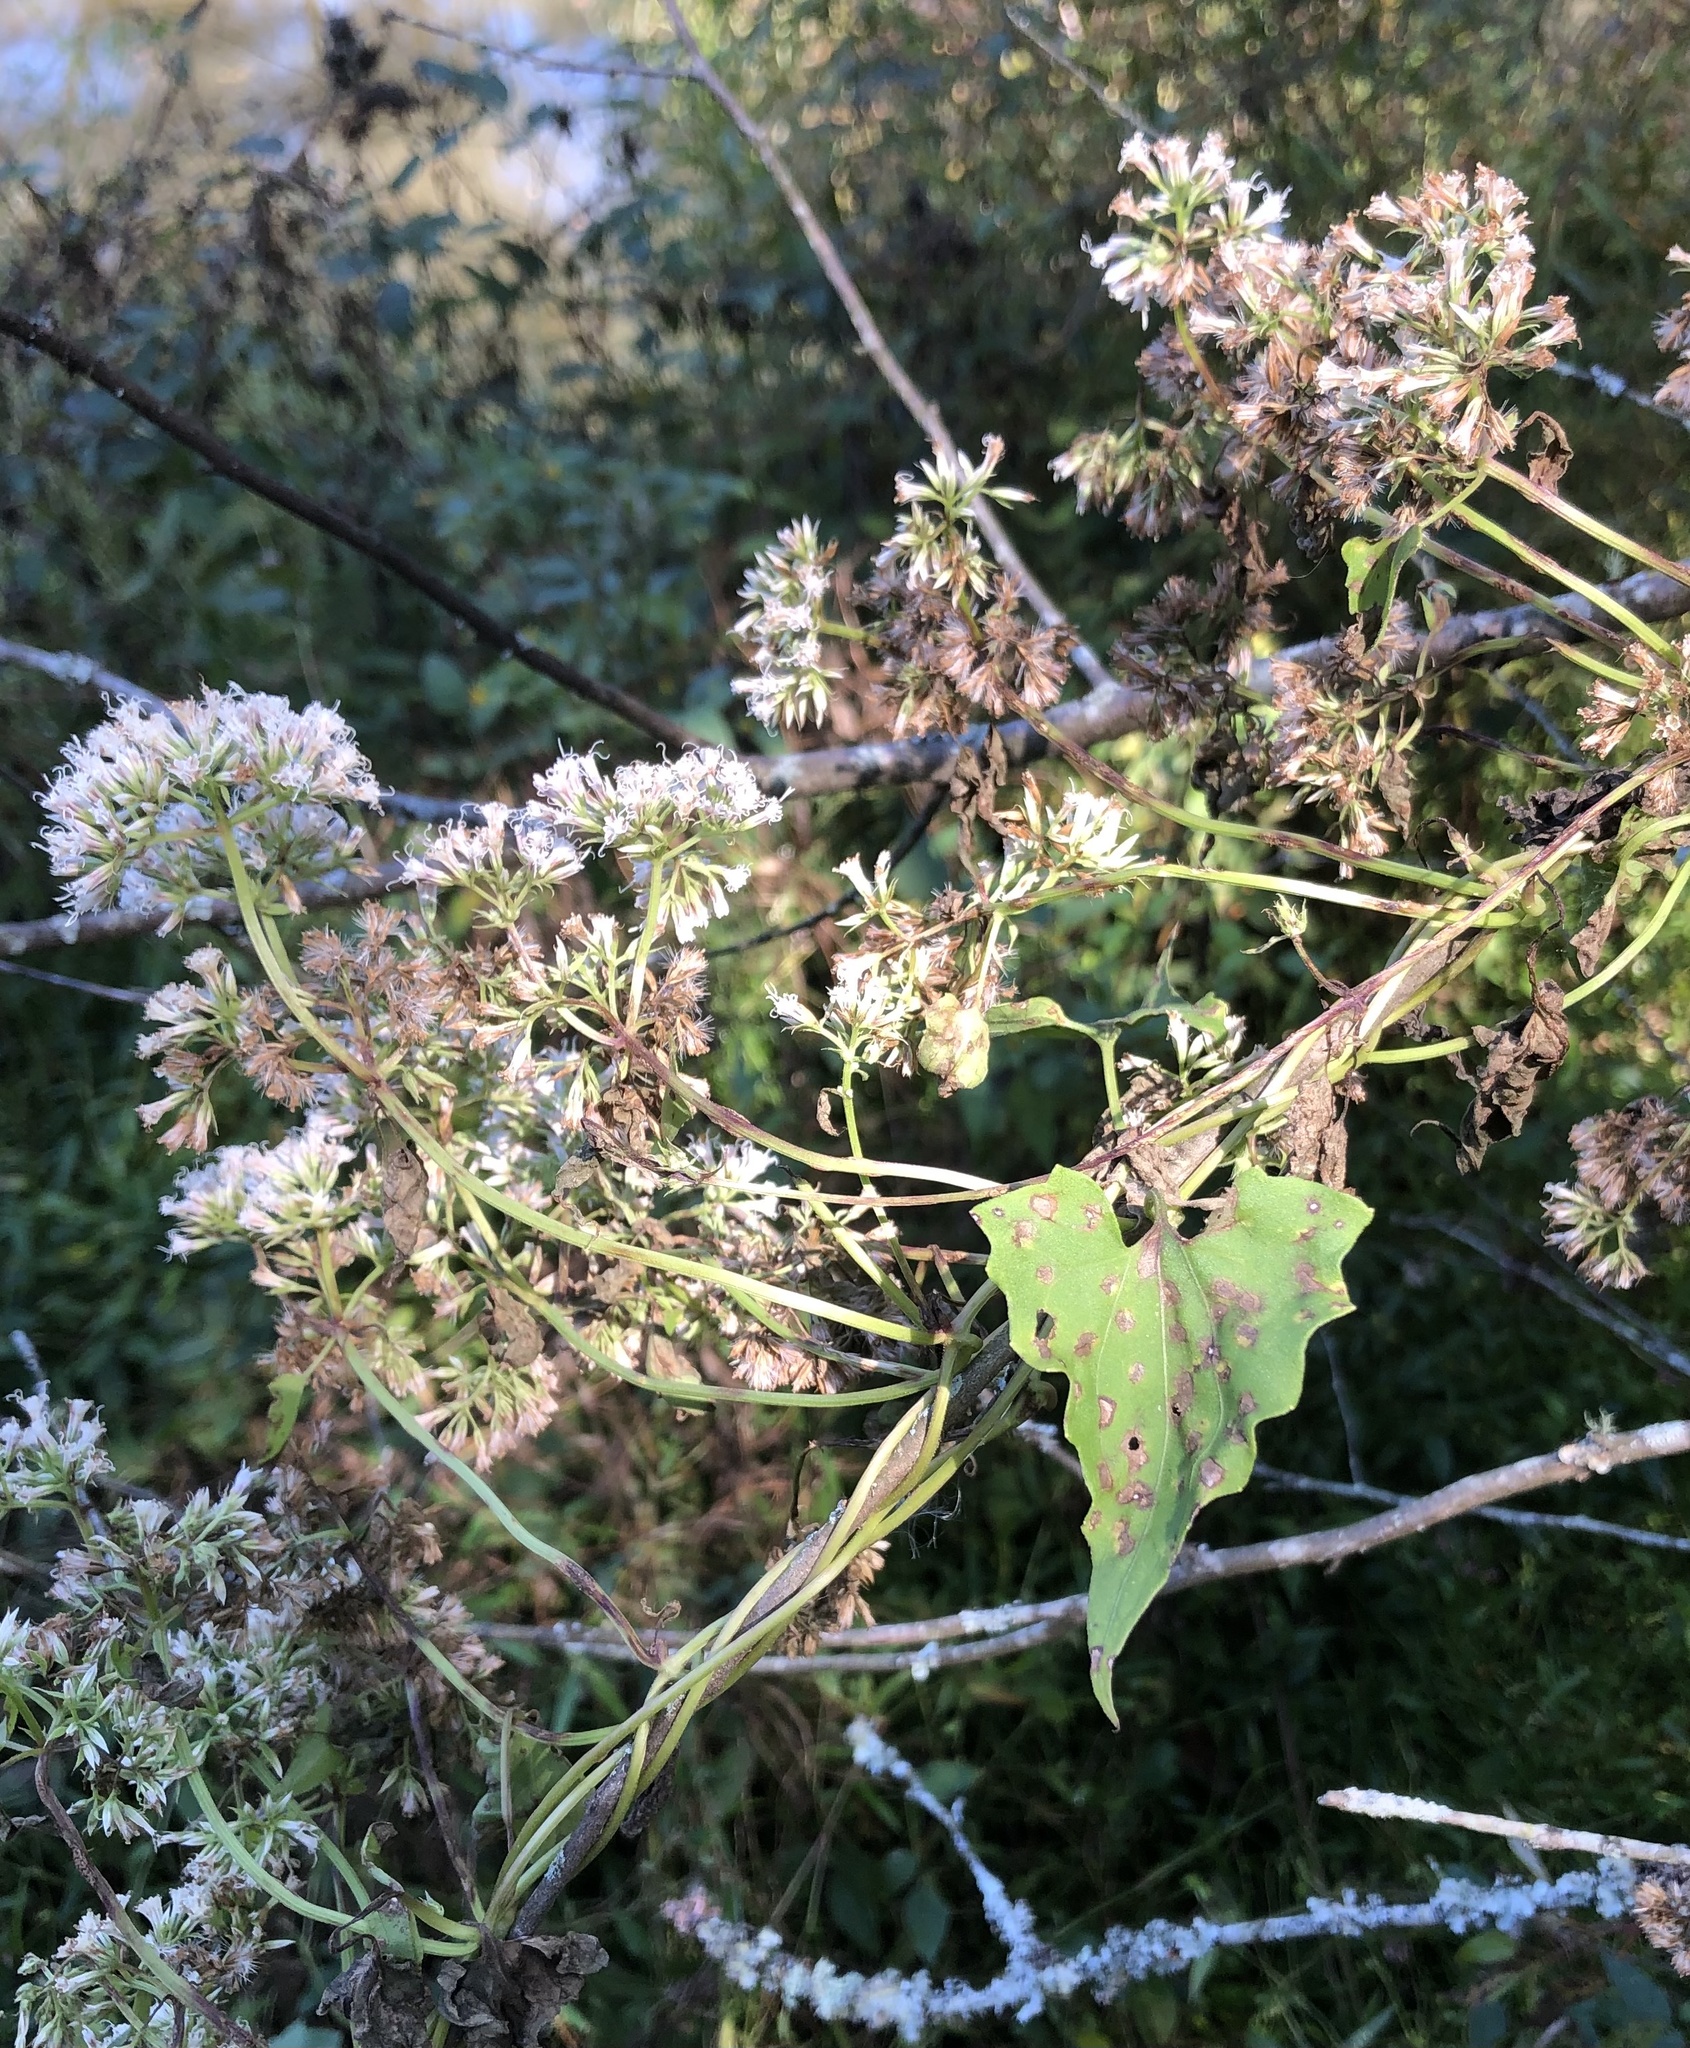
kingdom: Plantae
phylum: Tracheophyta
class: Magnoliopsida
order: Asterales
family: Asteraceae
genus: Mikania
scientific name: Mikania scandens
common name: Climbing hempvine
